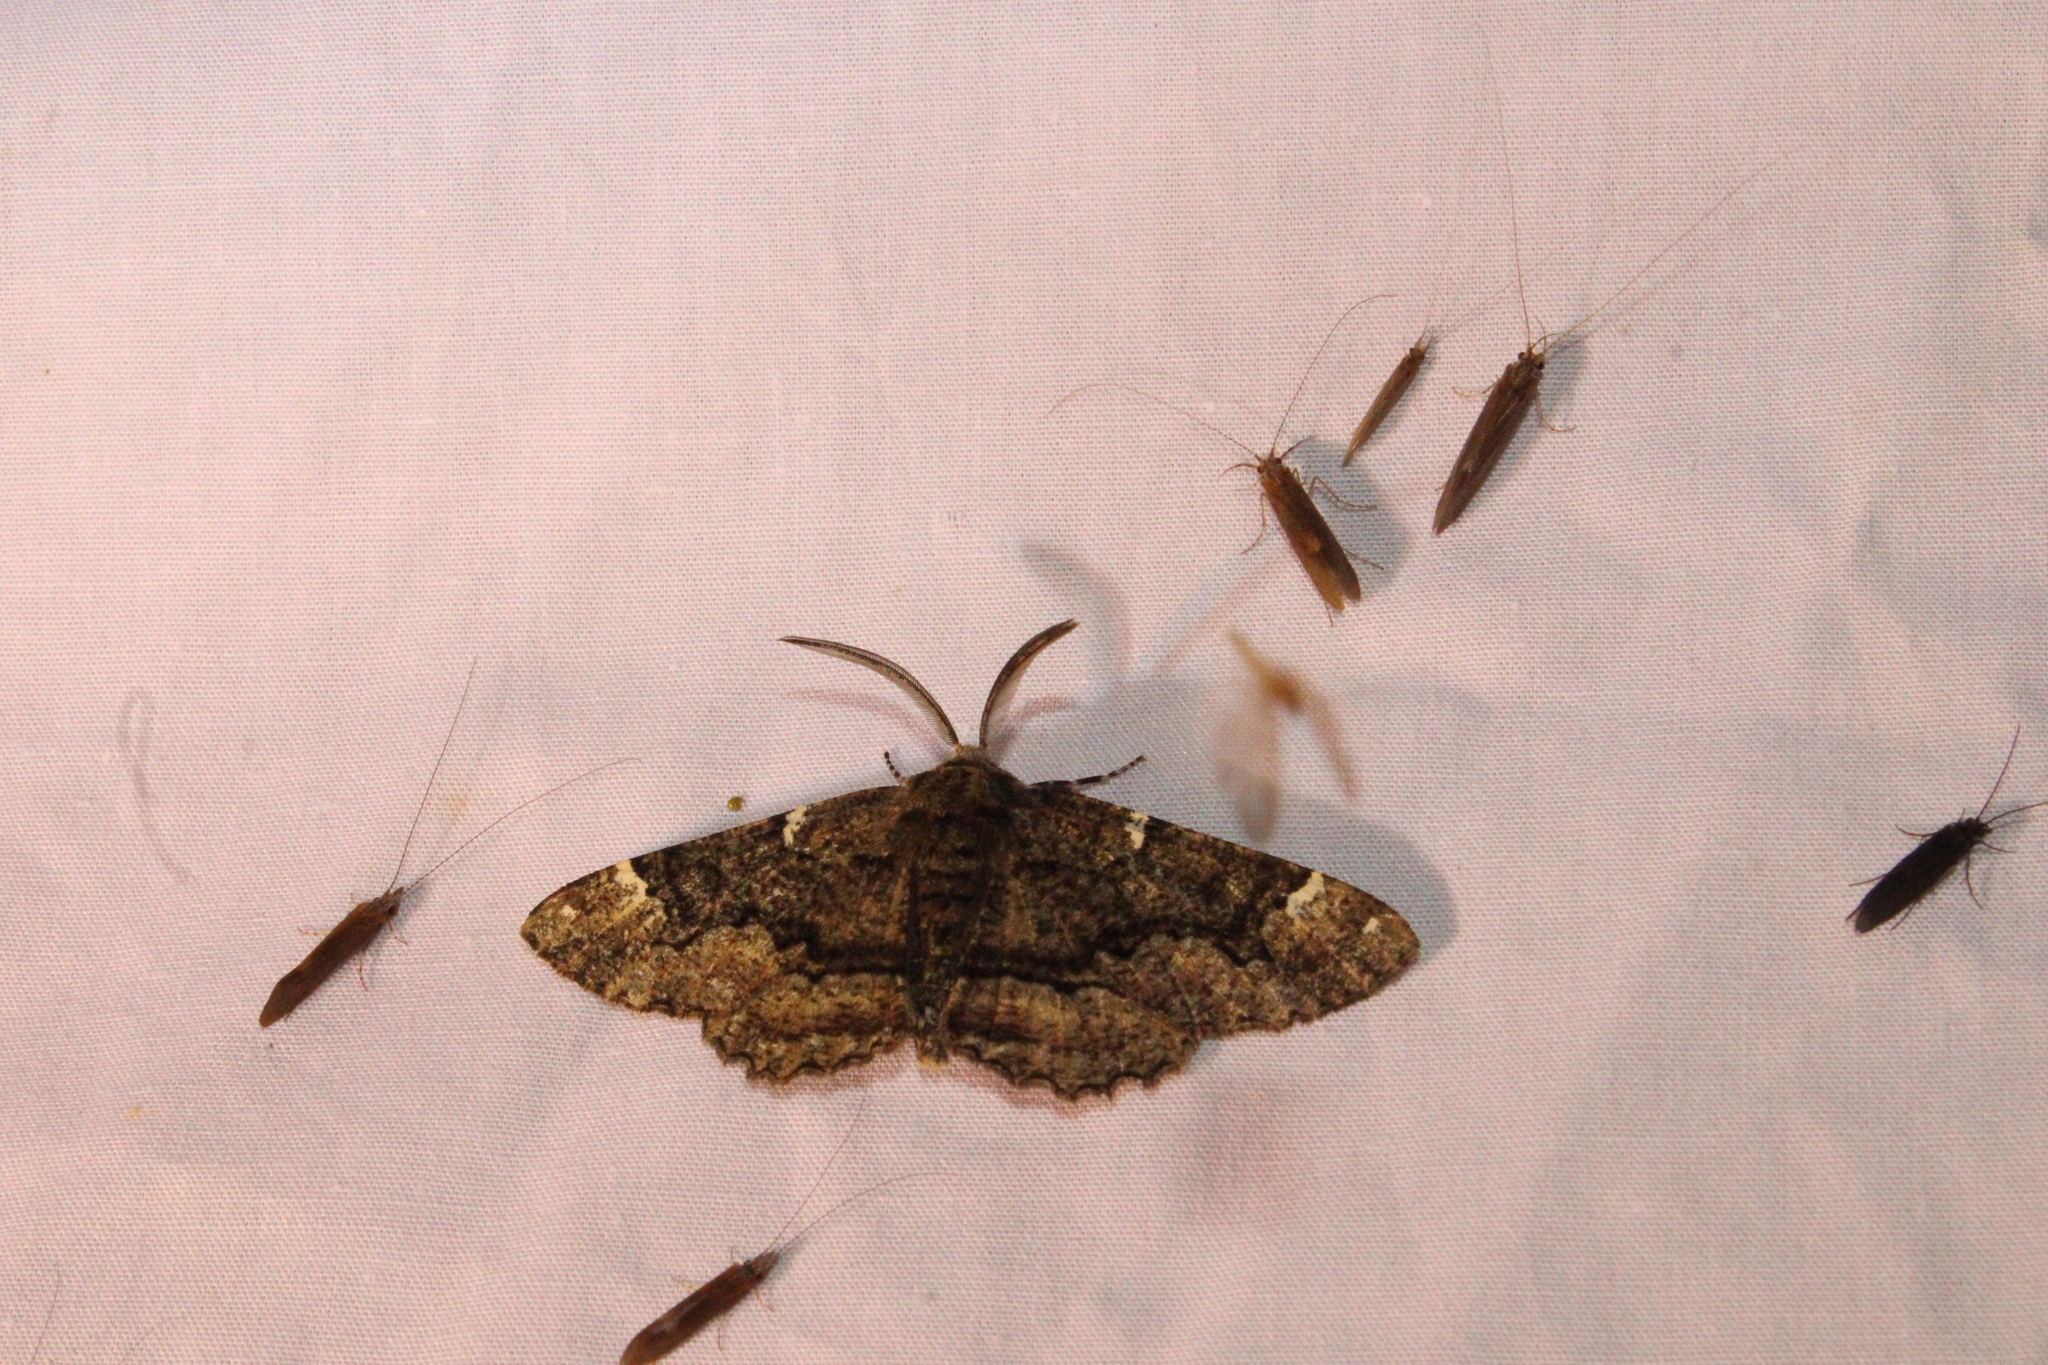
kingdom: Animalia
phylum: Arthropoda
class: Insecta
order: Lepidoptera
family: Geometridae
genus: Phaeoura
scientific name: Phaeoura quernaria
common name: Oak beauty
